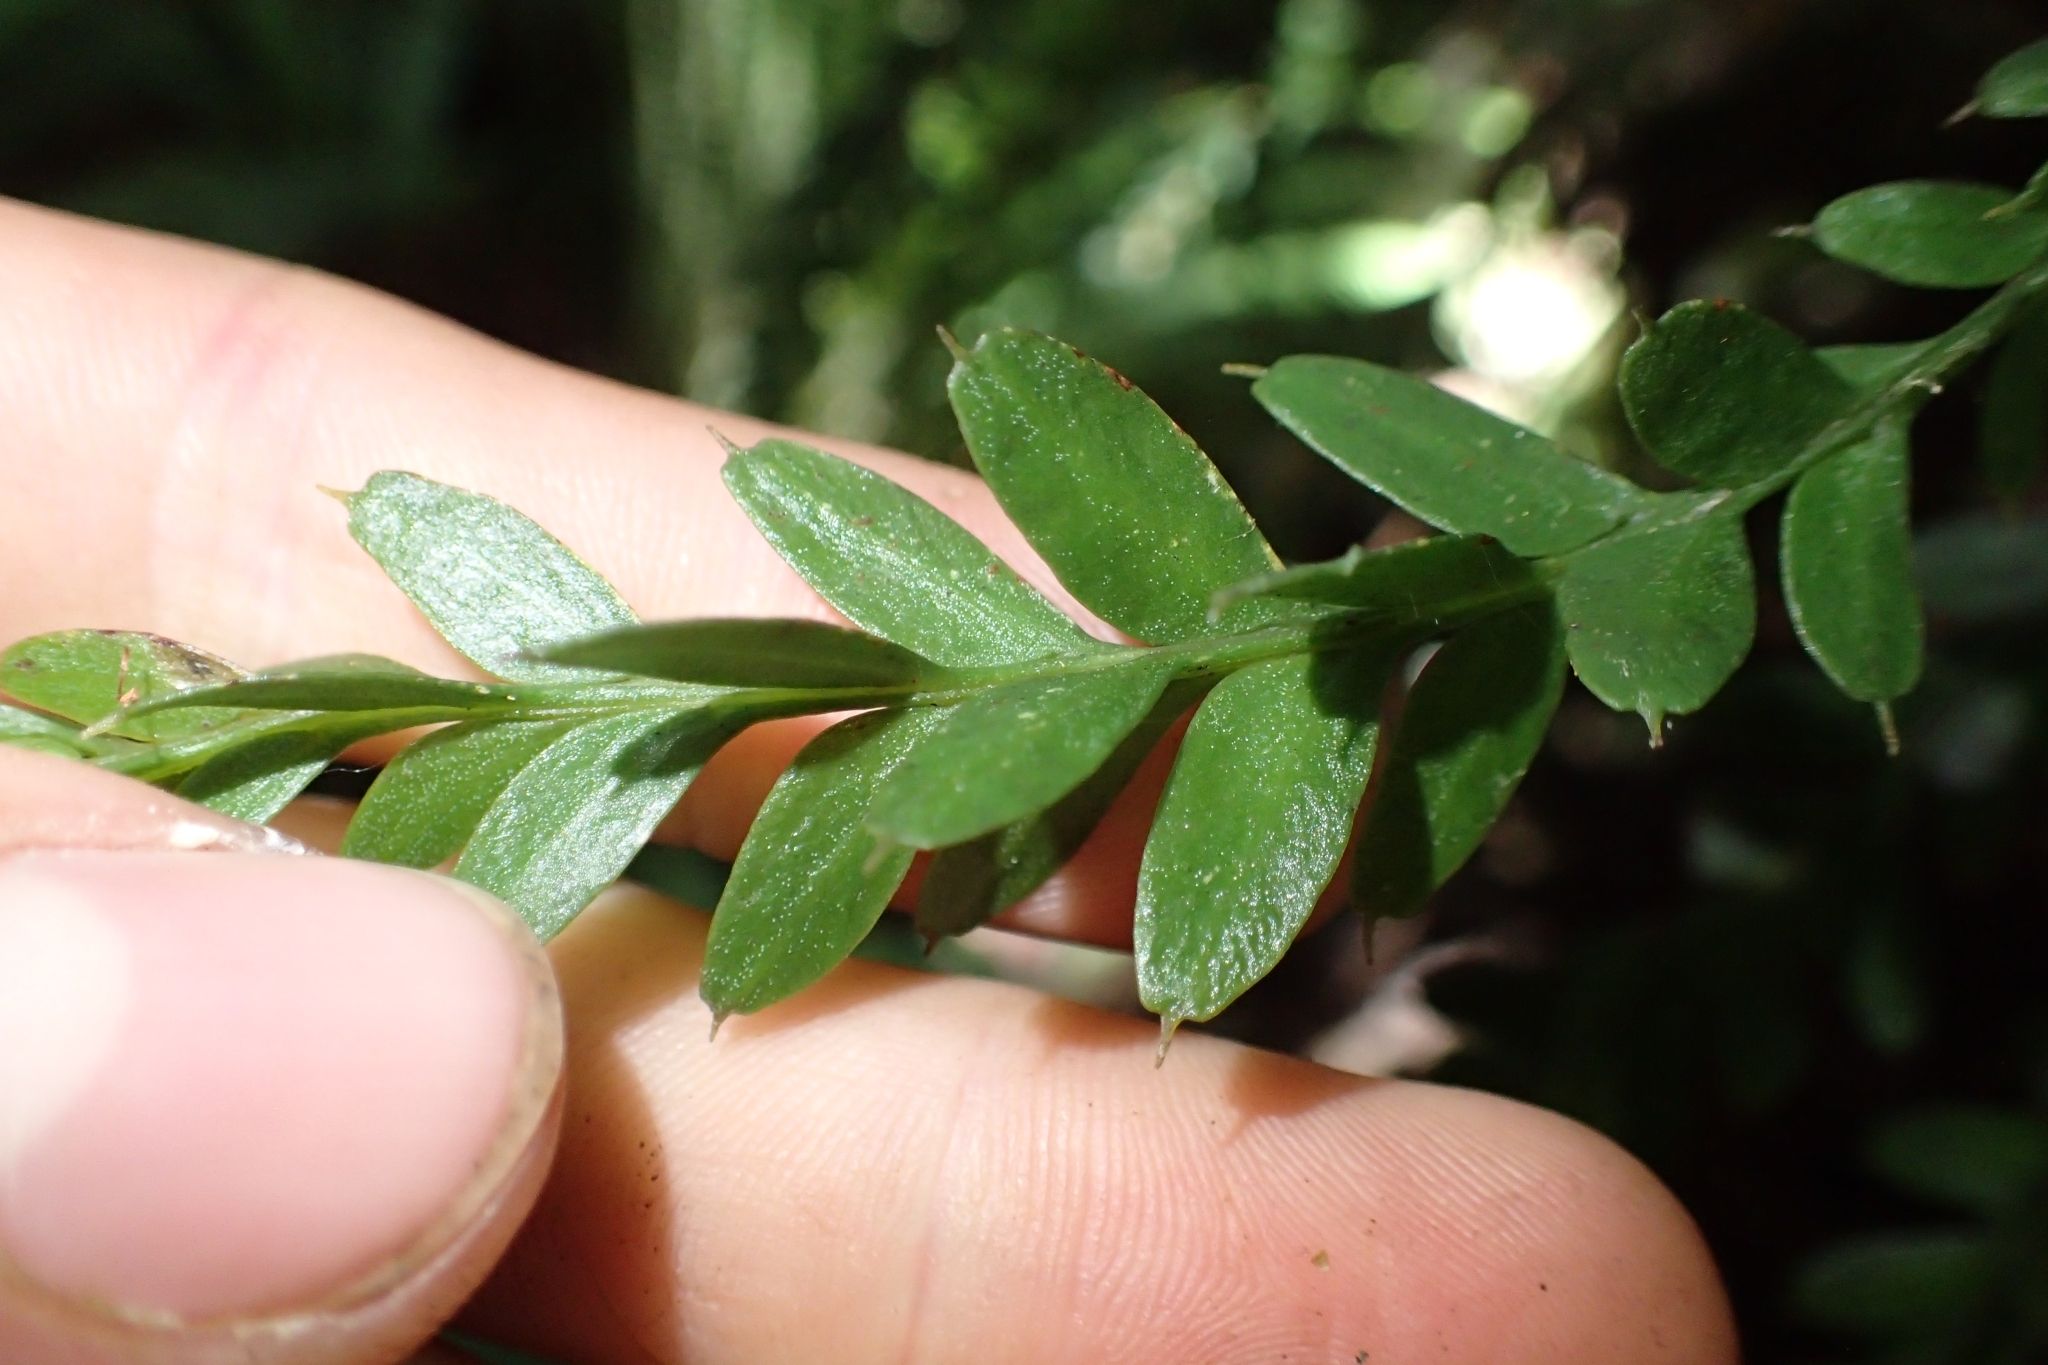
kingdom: Plantae
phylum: Tracheophyta
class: Polypodiopsida
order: Psilotales
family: Psilotaceae
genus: Tmesipteris
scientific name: Tmesipteris tannensis
